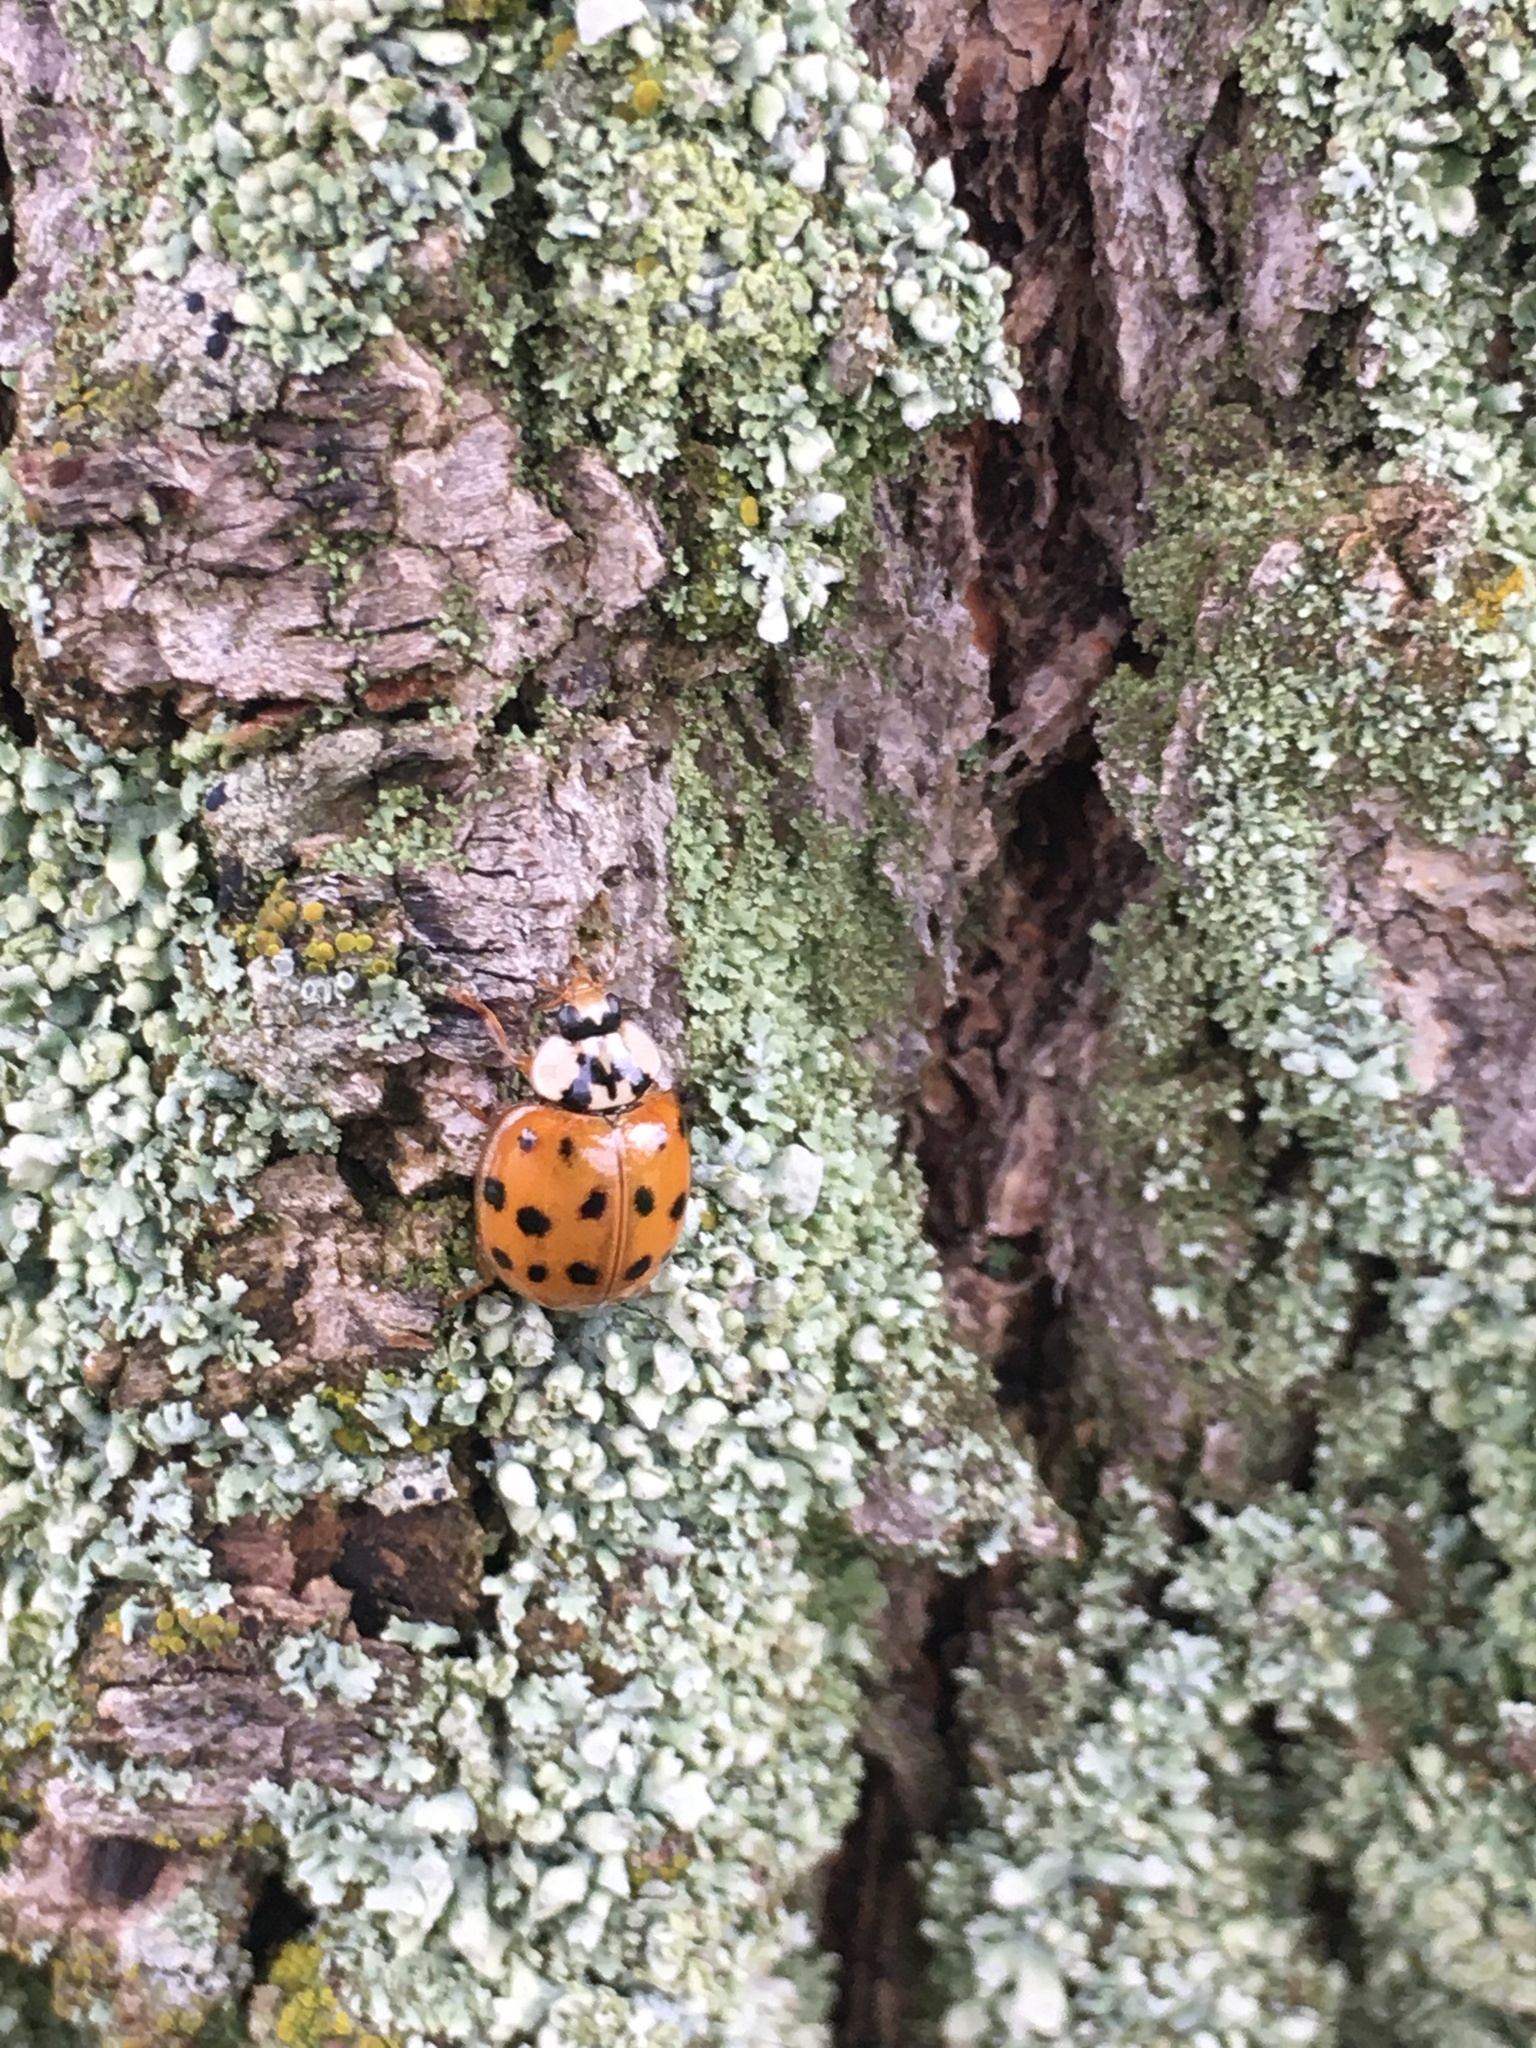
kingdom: Animalia
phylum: Arthropoda
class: Insecta
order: Coleoptera
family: Coccinellidae
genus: Harmonia
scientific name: Harmonia axyridis
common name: Harlequin ladybird
